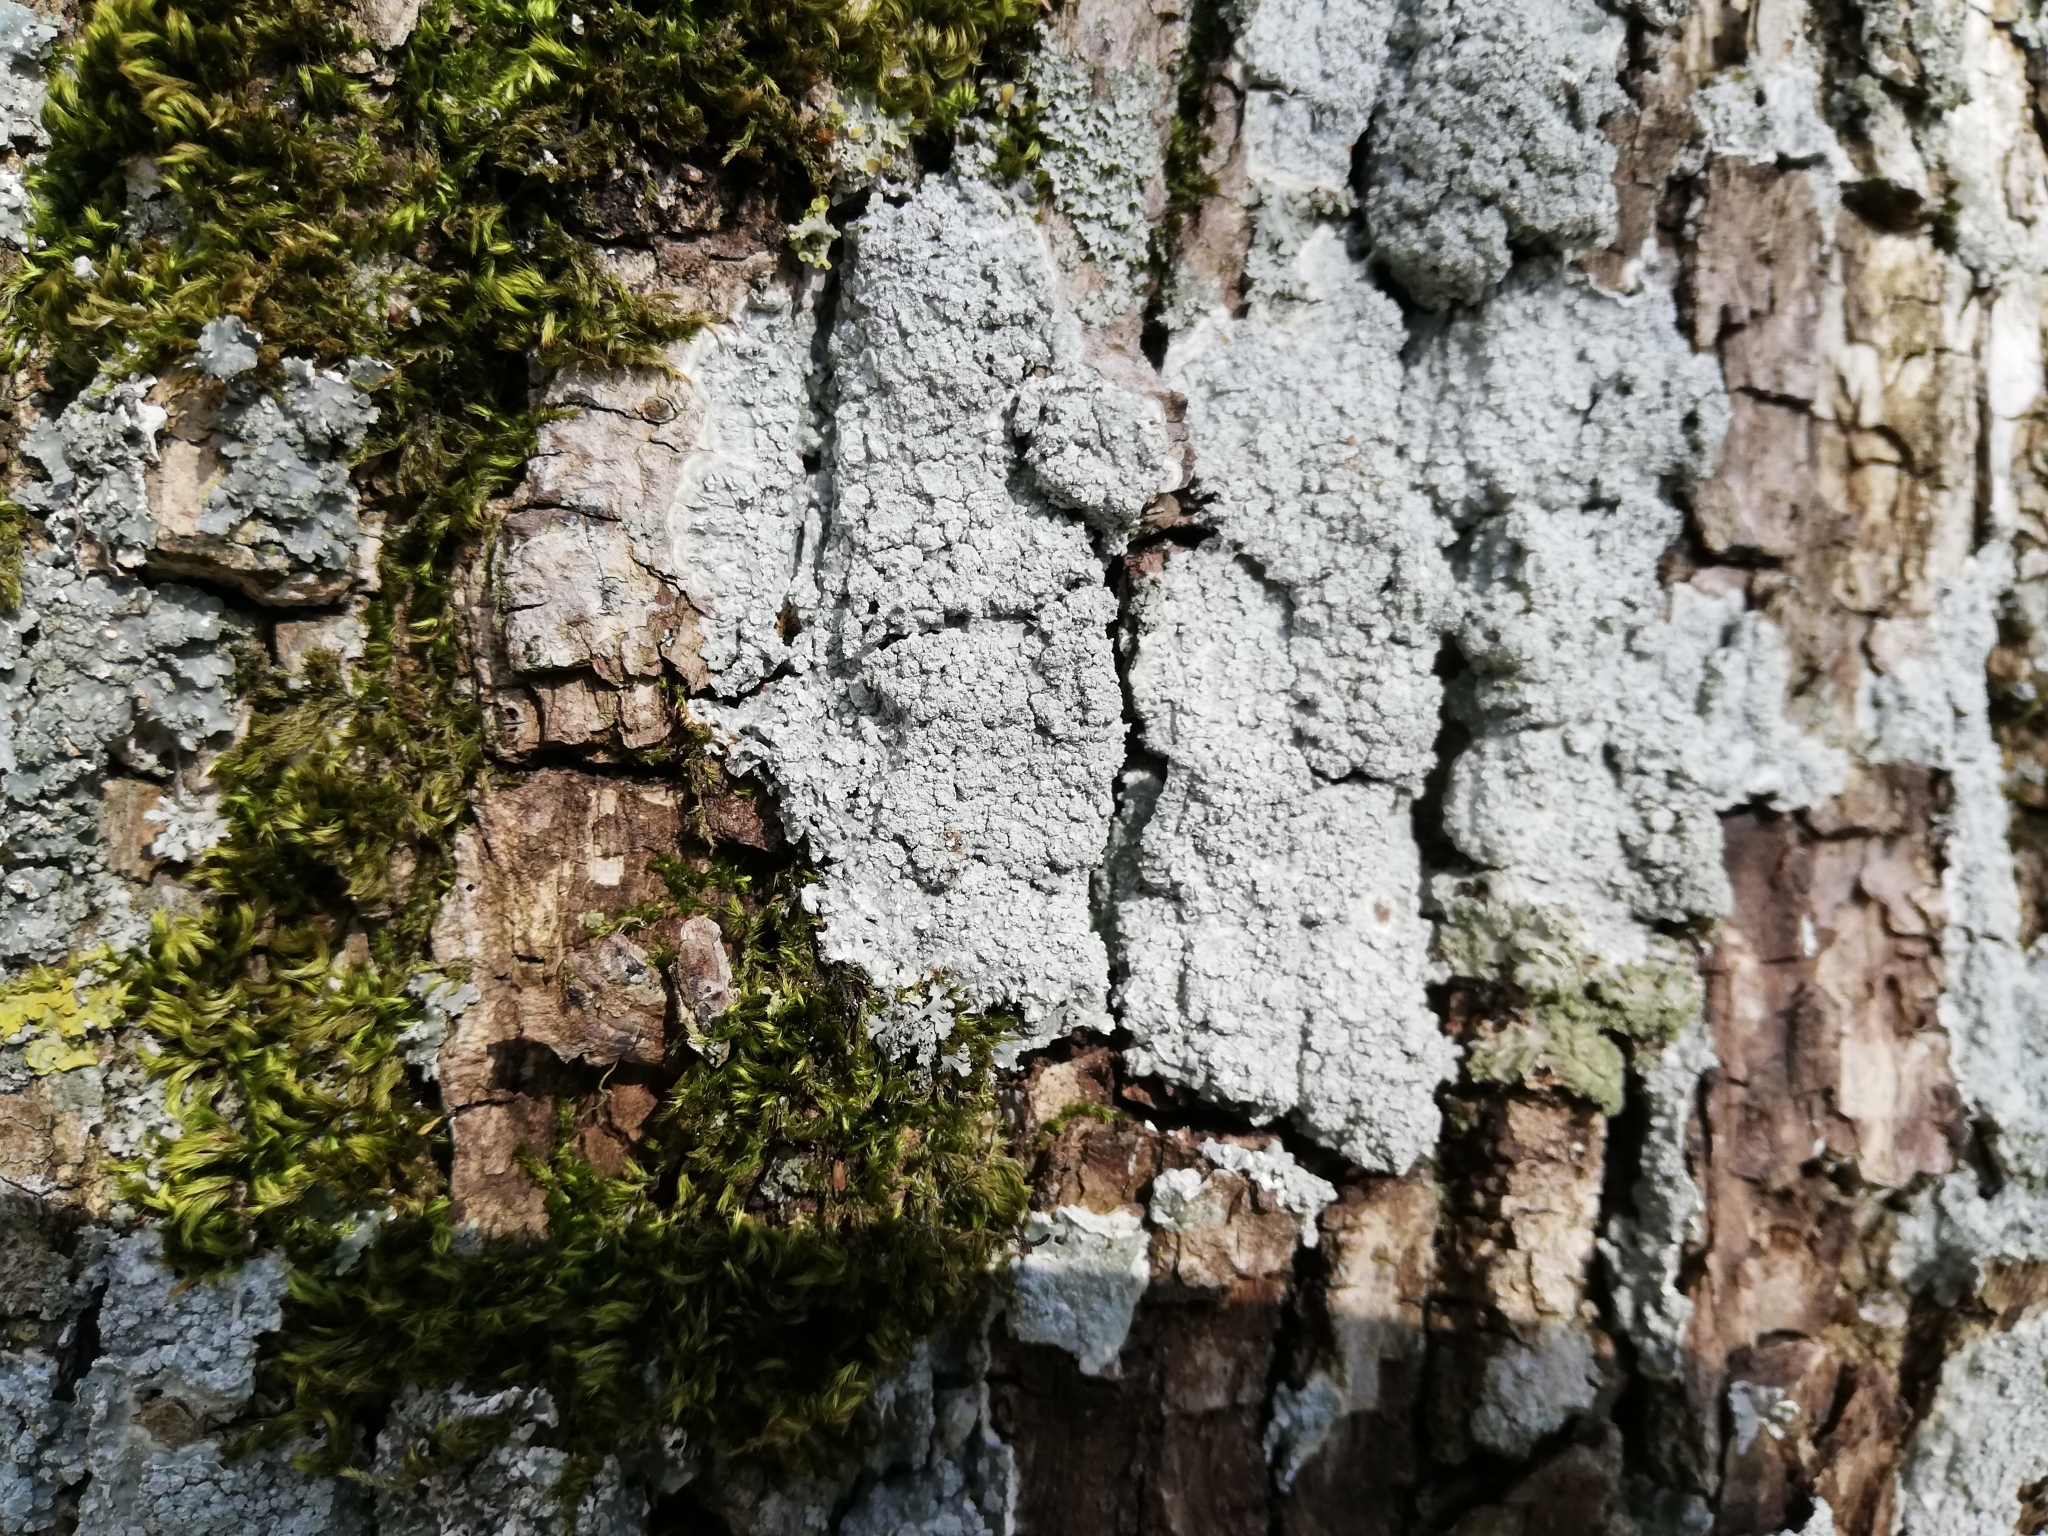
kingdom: Fungi
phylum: Ascomycota
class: Lecanoromycetes
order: Pertusariales
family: Pertusariaceae
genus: Lepra
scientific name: Lepra albescens
